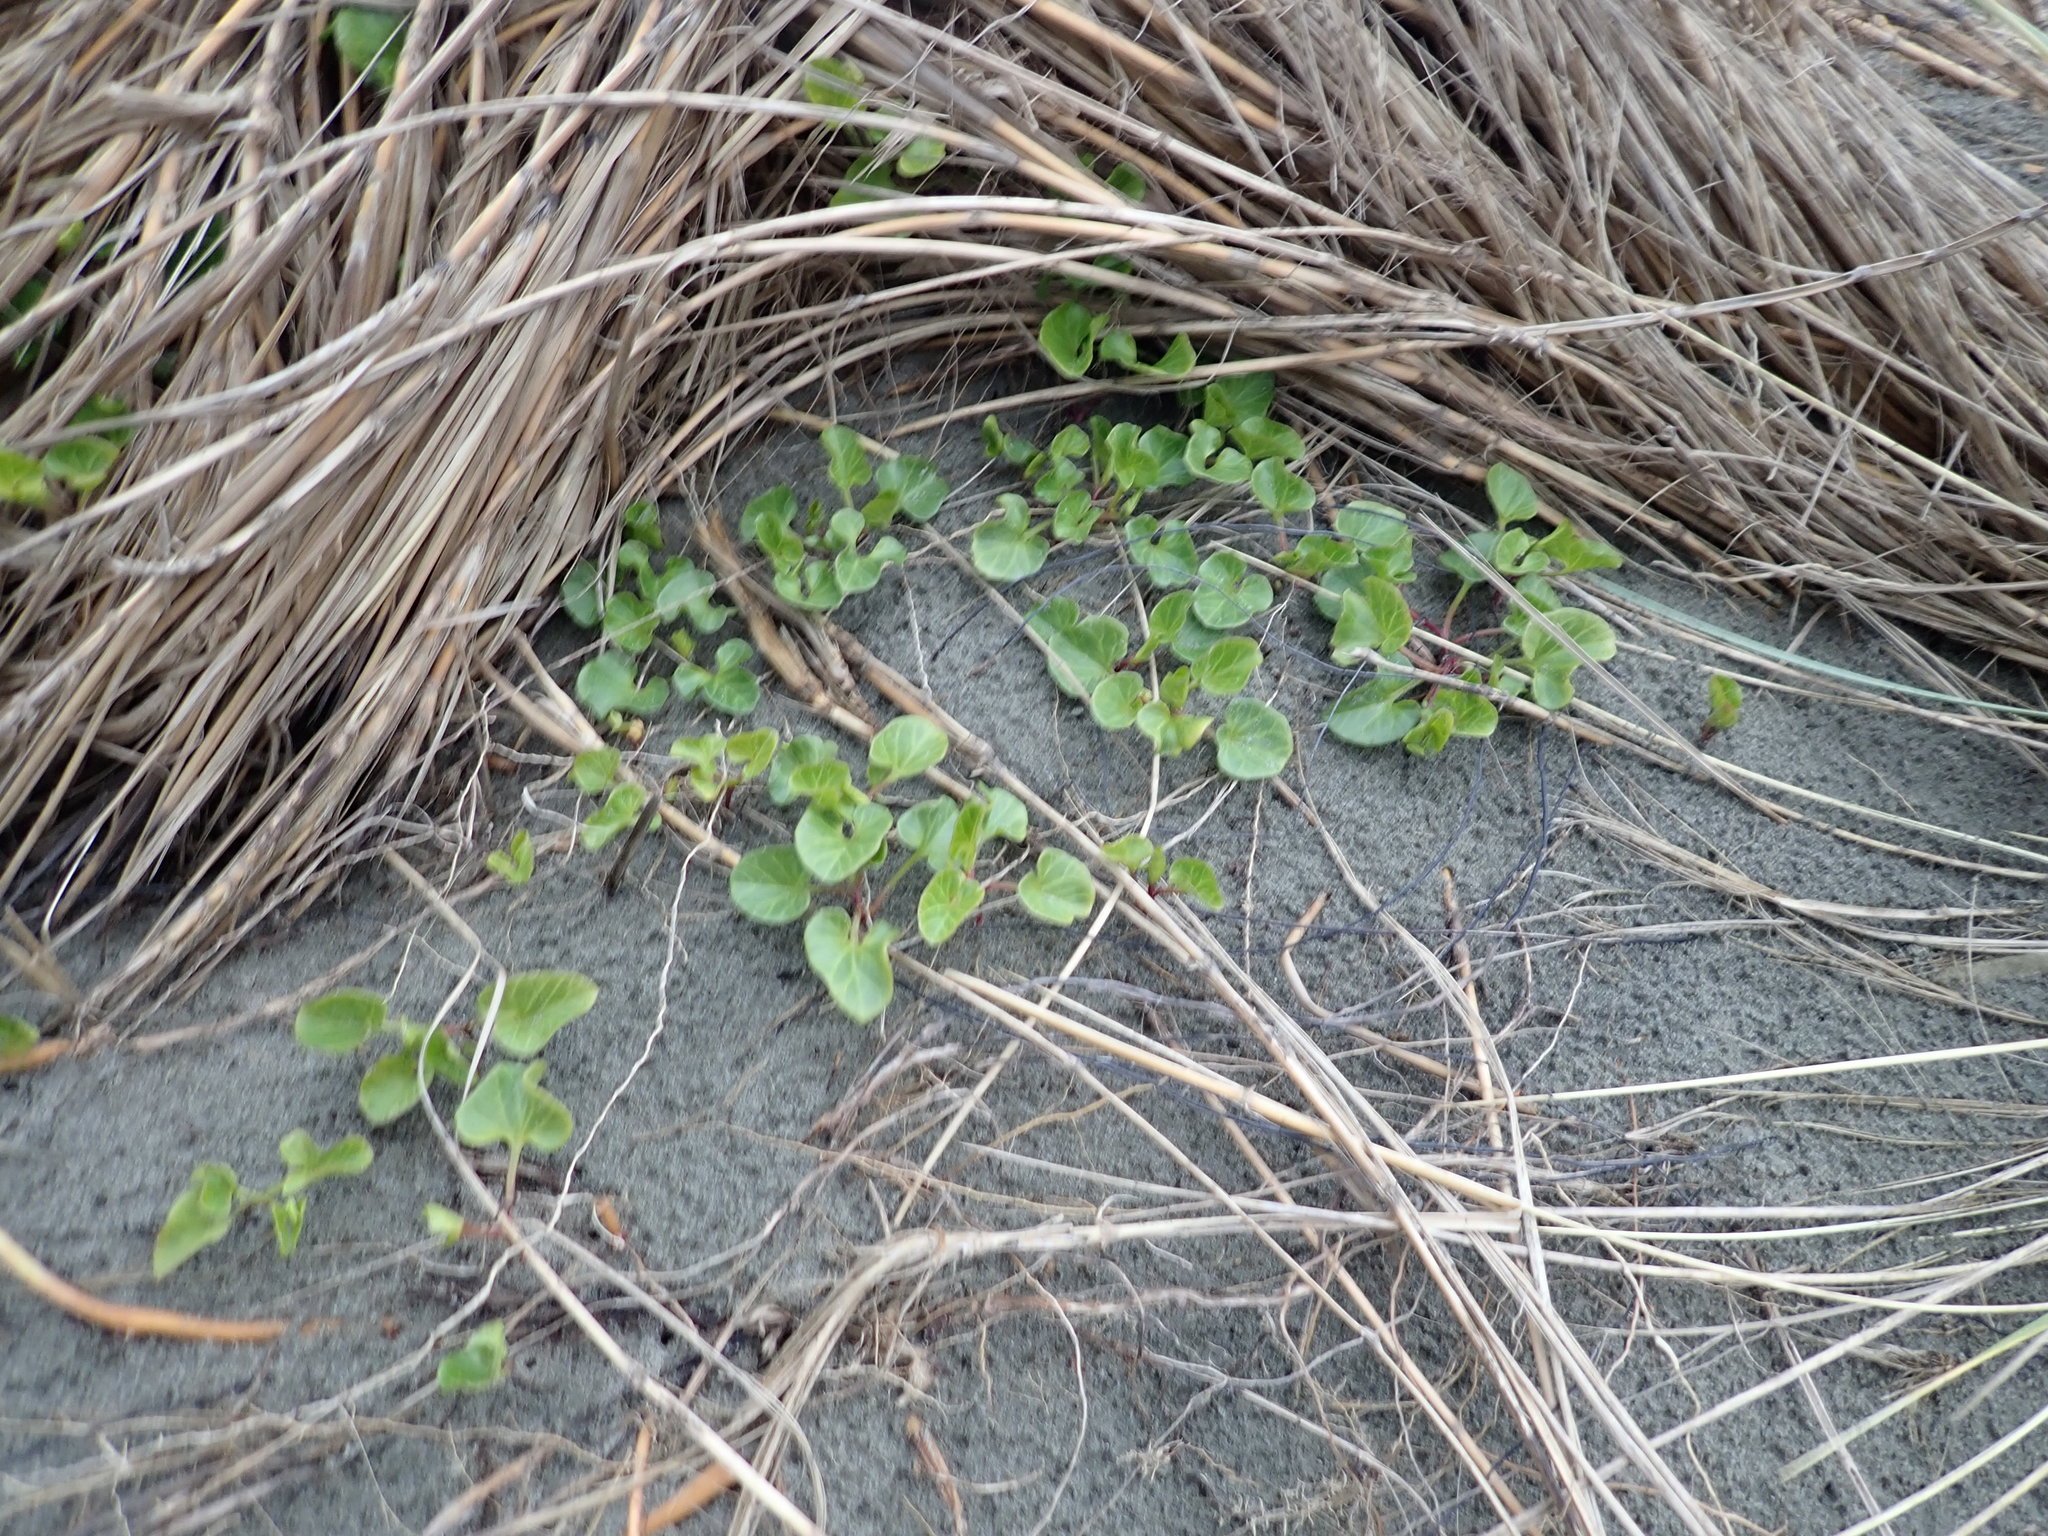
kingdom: Plantae
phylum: Tracheophyta
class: Magnoliopsida
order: Solanales
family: Convolvulaceae
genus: Calystegia
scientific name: Calystegia soldanella
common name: Sea bindweed
